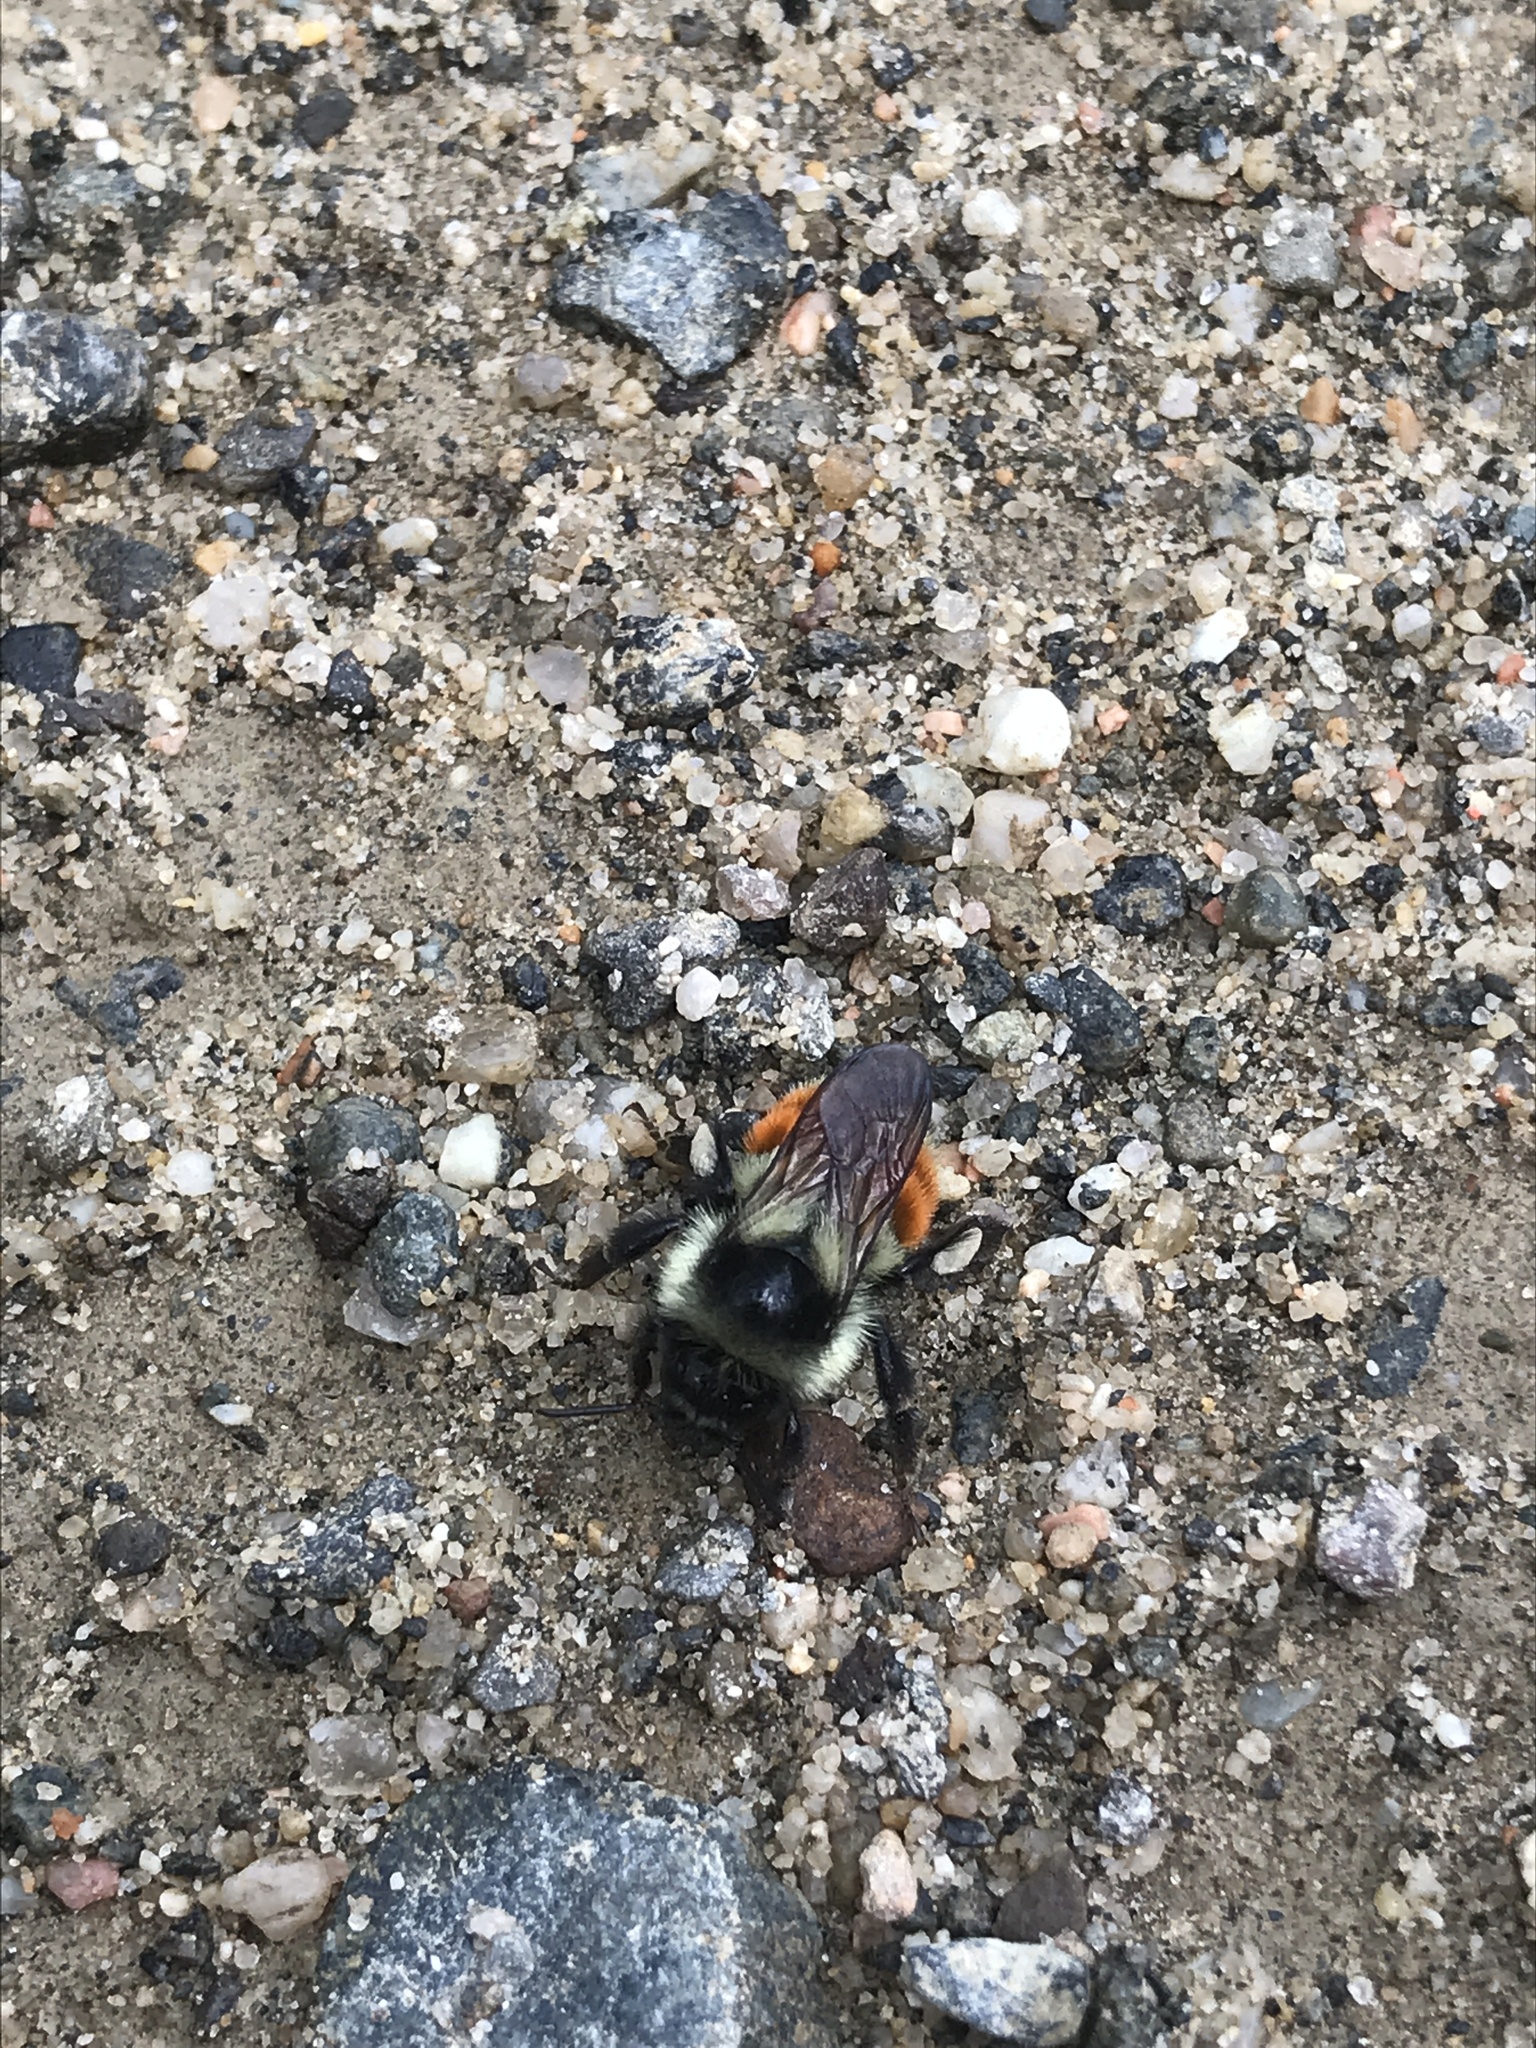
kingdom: Animalia
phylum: Arthropoda
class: Insecta
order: Hymenoptera
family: Apidae
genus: Bombus
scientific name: Bombus ternarius
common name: Tri-colored bumble bee
